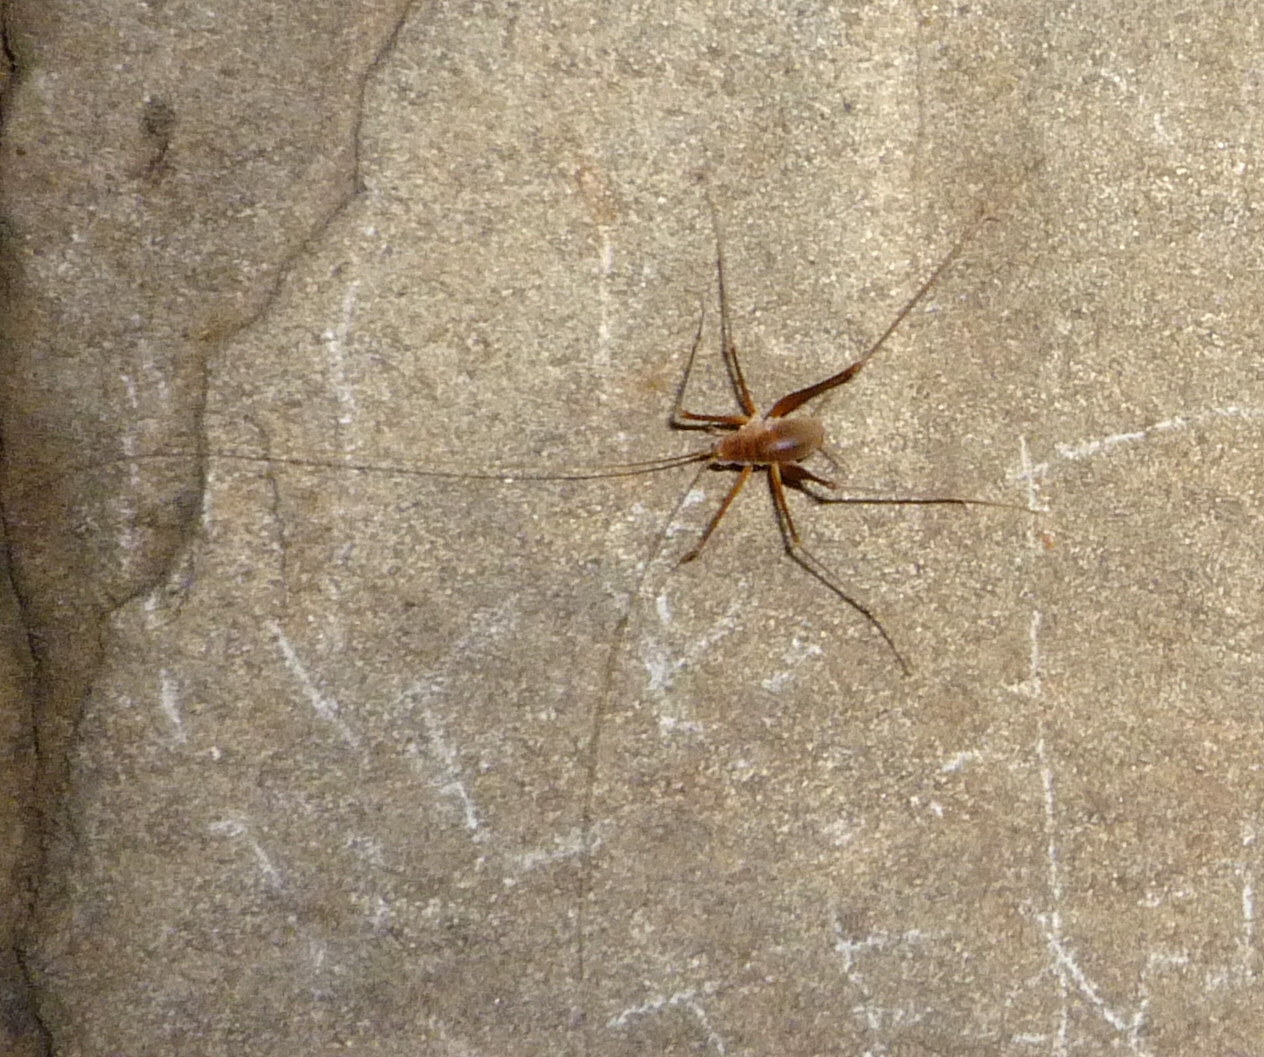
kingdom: Animalia
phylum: Arthropoda
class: Insecta
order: Orthoptera
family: Rhaphidophoridae
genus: Hadenoecus
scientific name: Hadenoecus subterraneus
